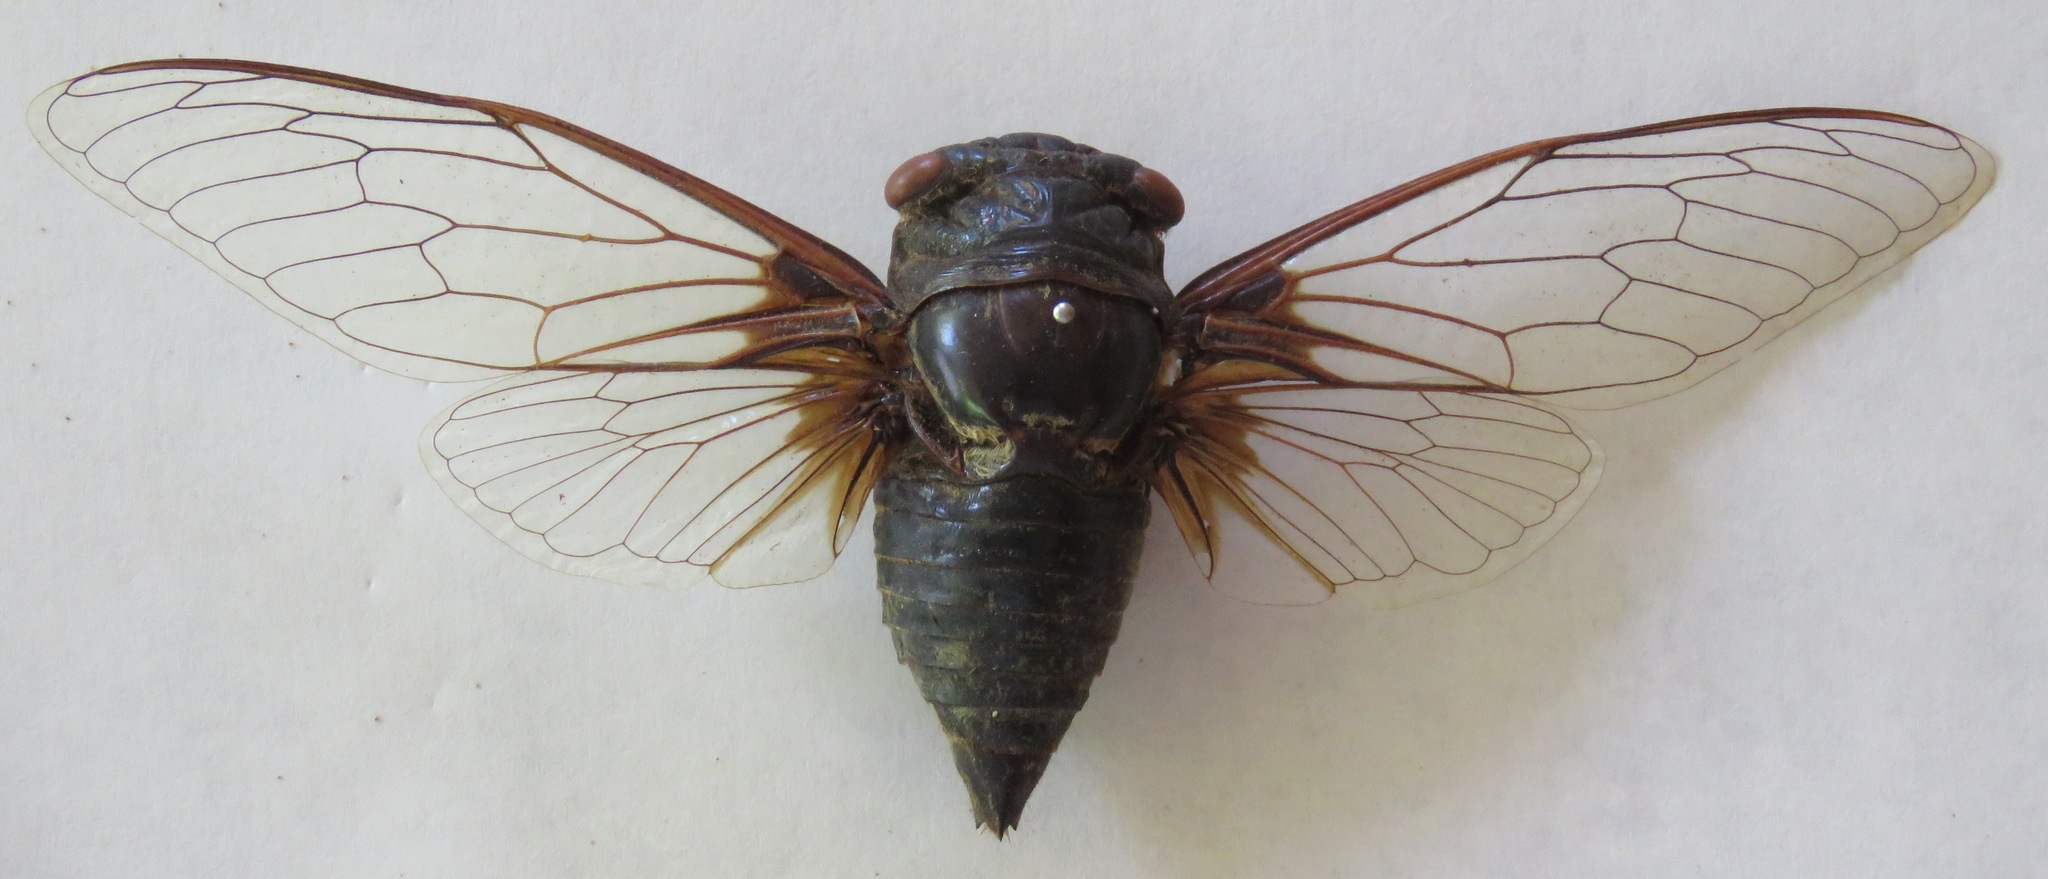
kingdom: Animalia
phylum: Arthropoda
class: Insecta
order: Hemiptera
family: Cicadidae
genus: Cryptotympana
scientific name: Cryptotympana takasagona
